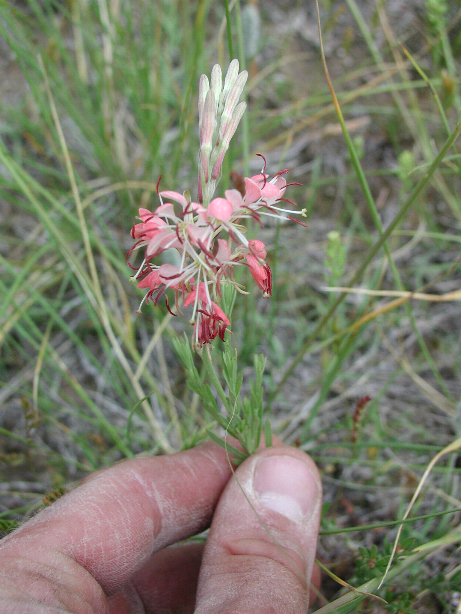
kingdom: Plantae
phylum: Tracheophyta
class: Magnoliopsida
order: Myrtales
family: Onagraceae
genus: Oenothera
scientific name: Oenothera suffrutescens
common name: Scarlet beeblossom
